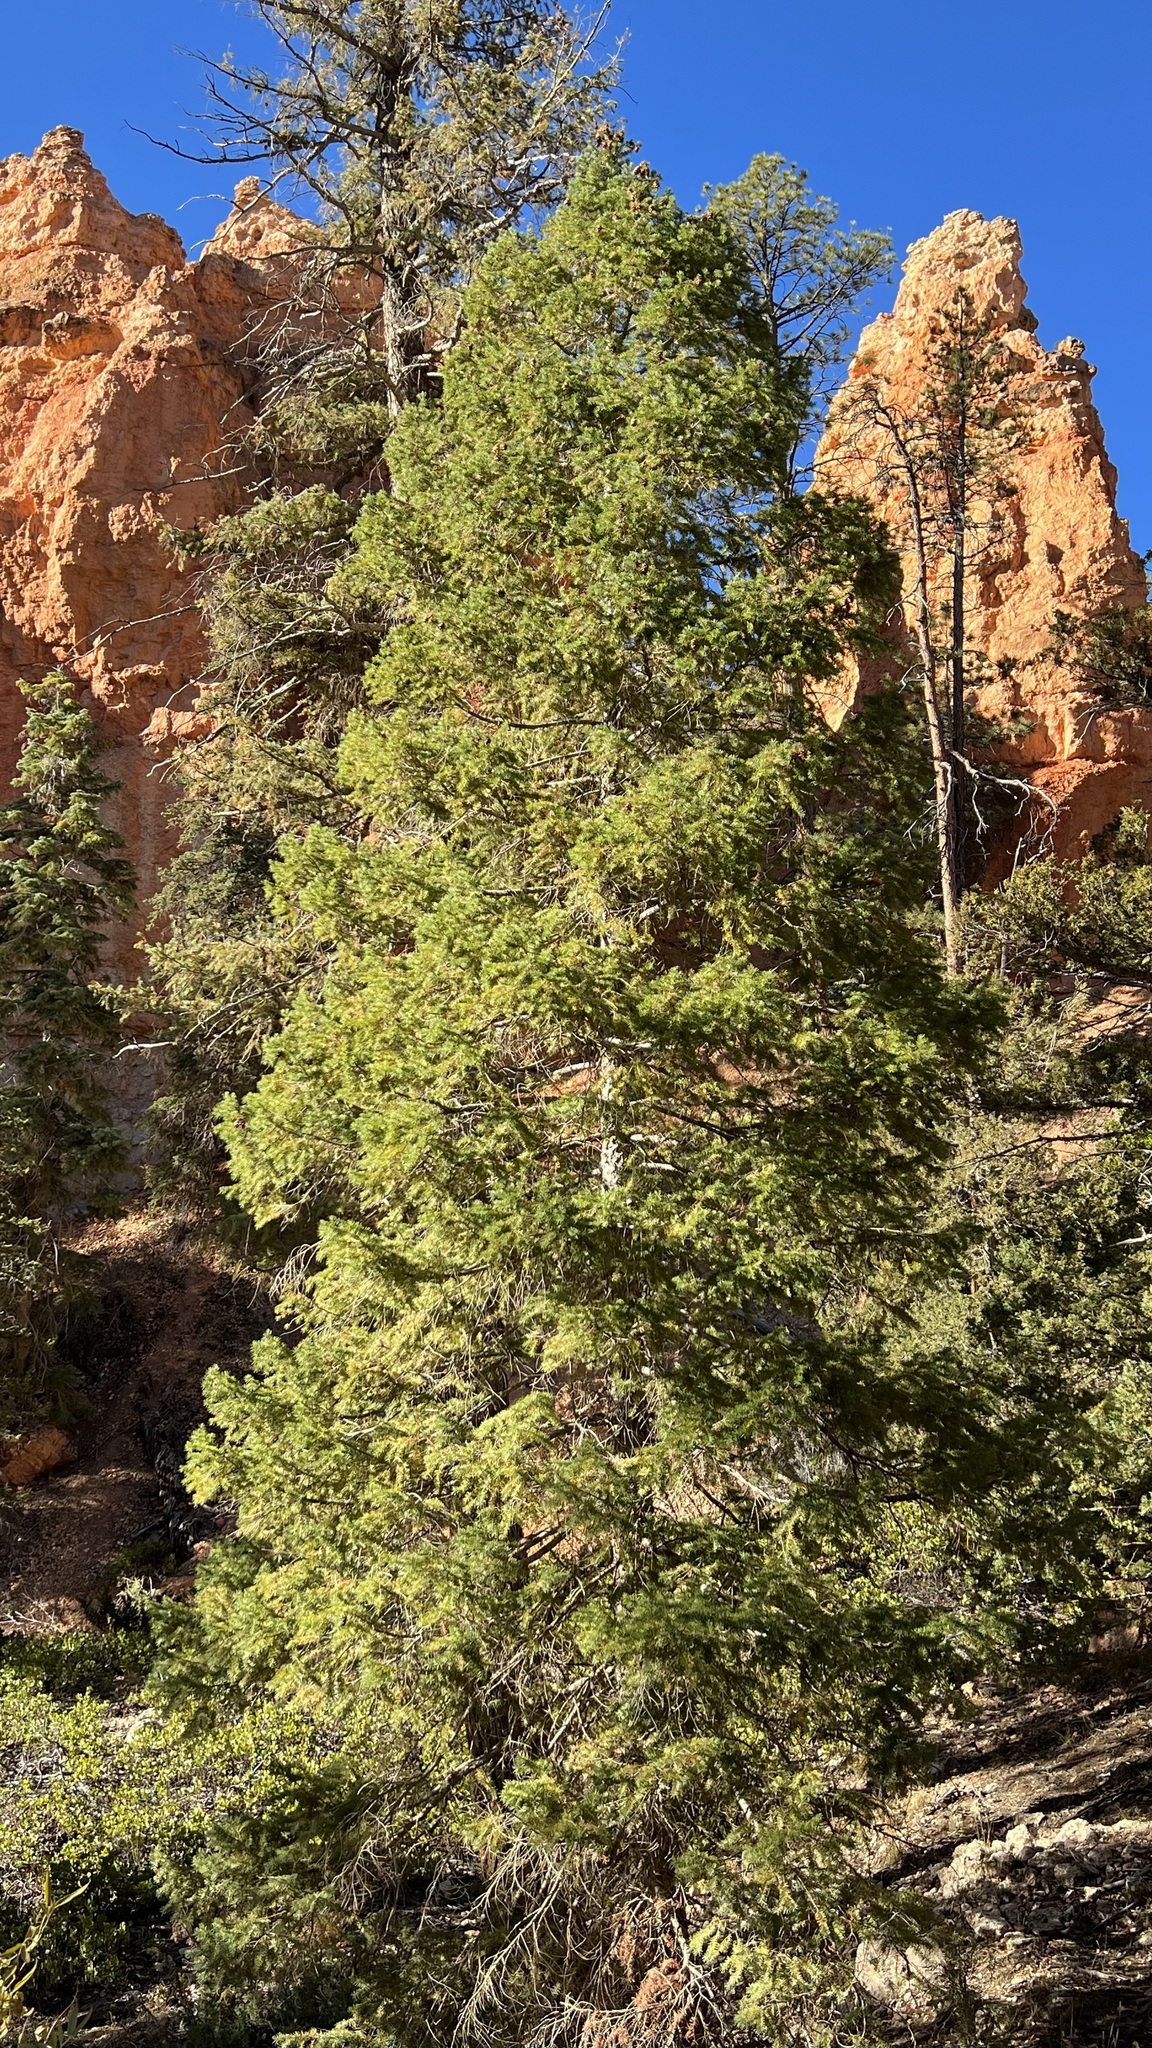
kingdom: Plantae
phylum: Tracheophyta
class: Pinopsida
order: Pinales
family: Pinaceae
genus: Pseudotsuga
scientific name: Pseudotsuga menziesii
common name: Douglas fir
